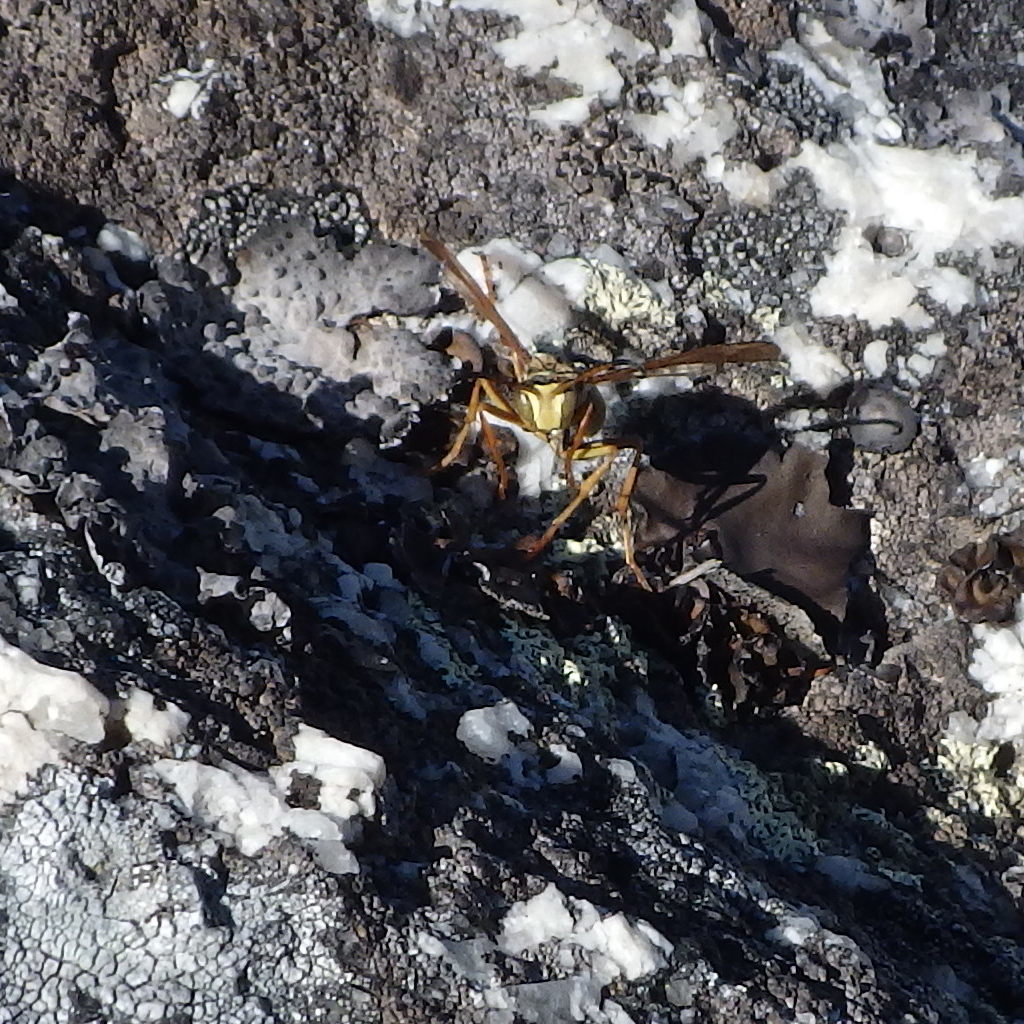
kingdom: Animalia
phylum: Arthropoda
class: Insecta
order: Hymenoptera
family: Eumenidae
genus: Polistes
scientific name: Polistes fuscatus
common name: Dark paper wasp
